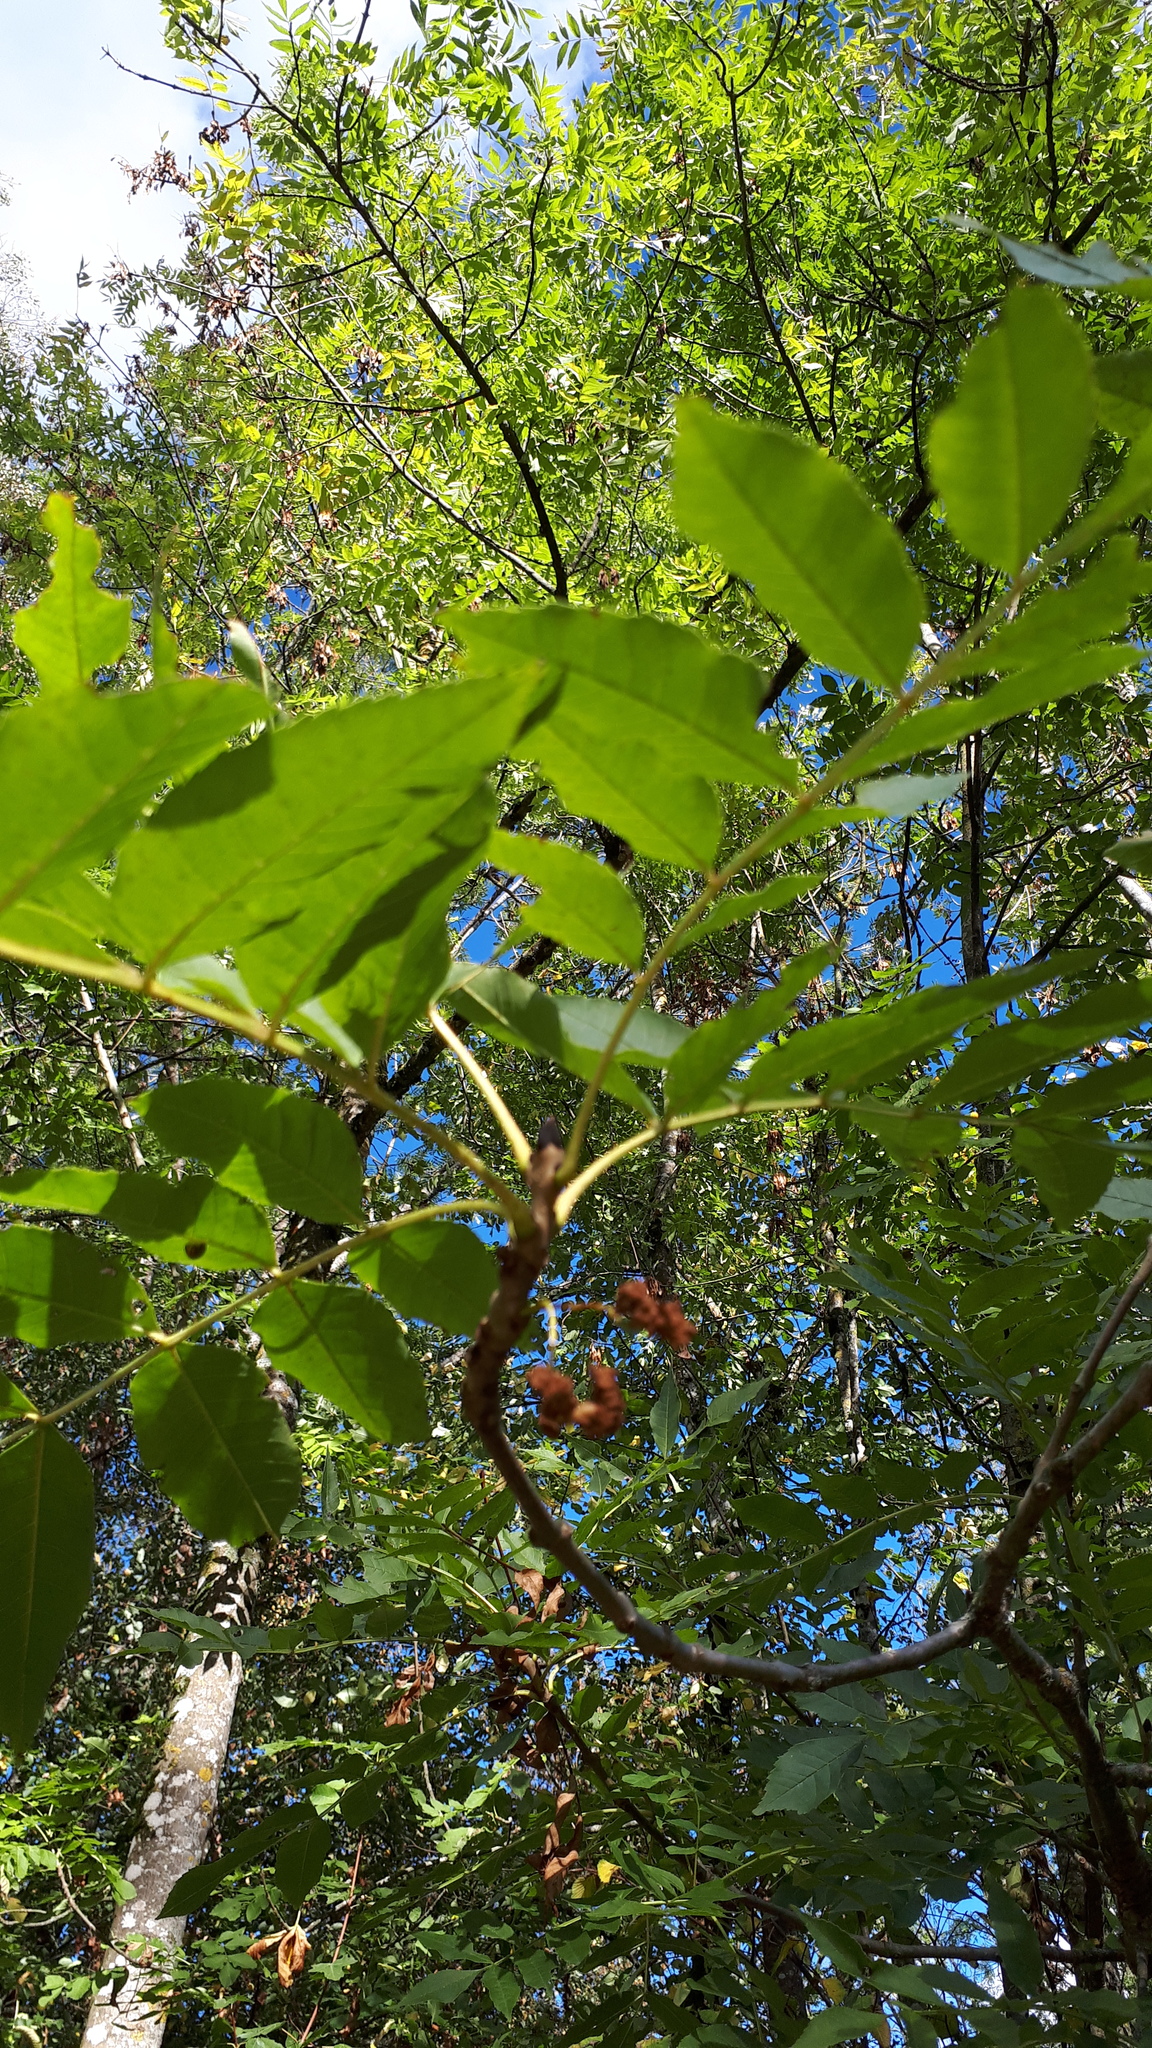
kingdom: Animalia
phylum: Arthropoda
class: Arachnida
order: Trombidiformes
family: Eriophyidae
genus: Aceria
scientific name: Aceria fraxinivora
